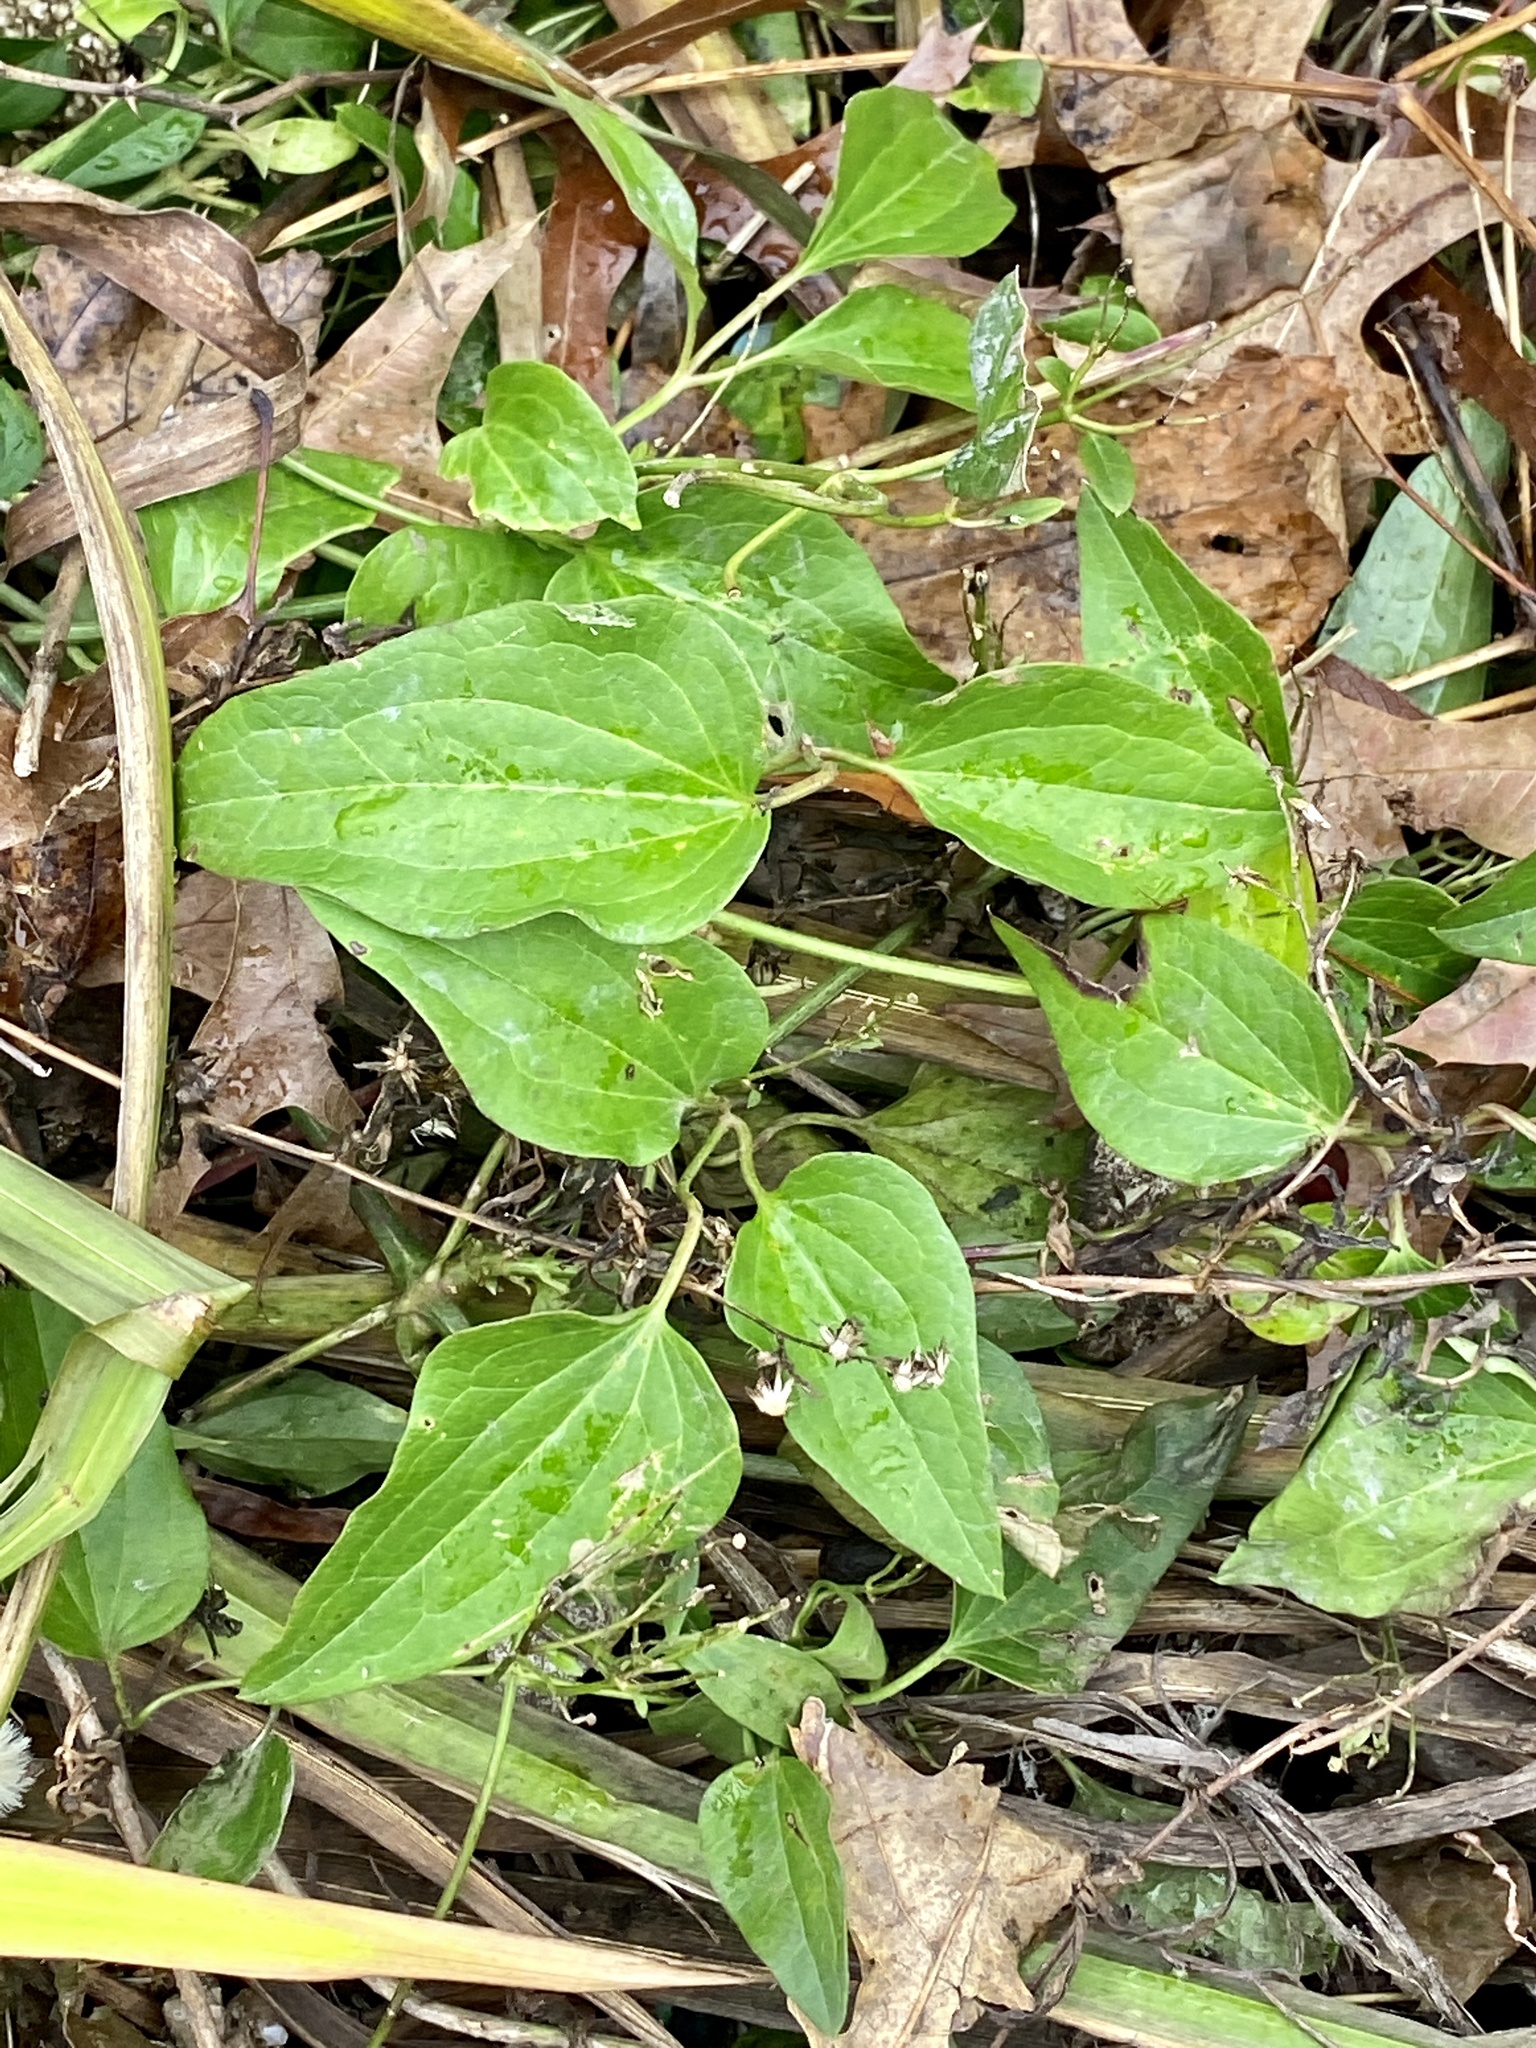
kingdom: Plantae
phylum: Tracheophyta
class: Magnoliopsida
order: Ranunculales
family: Ranunculaceae
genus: Clematis
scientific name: Clematis terniflora
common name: Sweet autumn clematis
